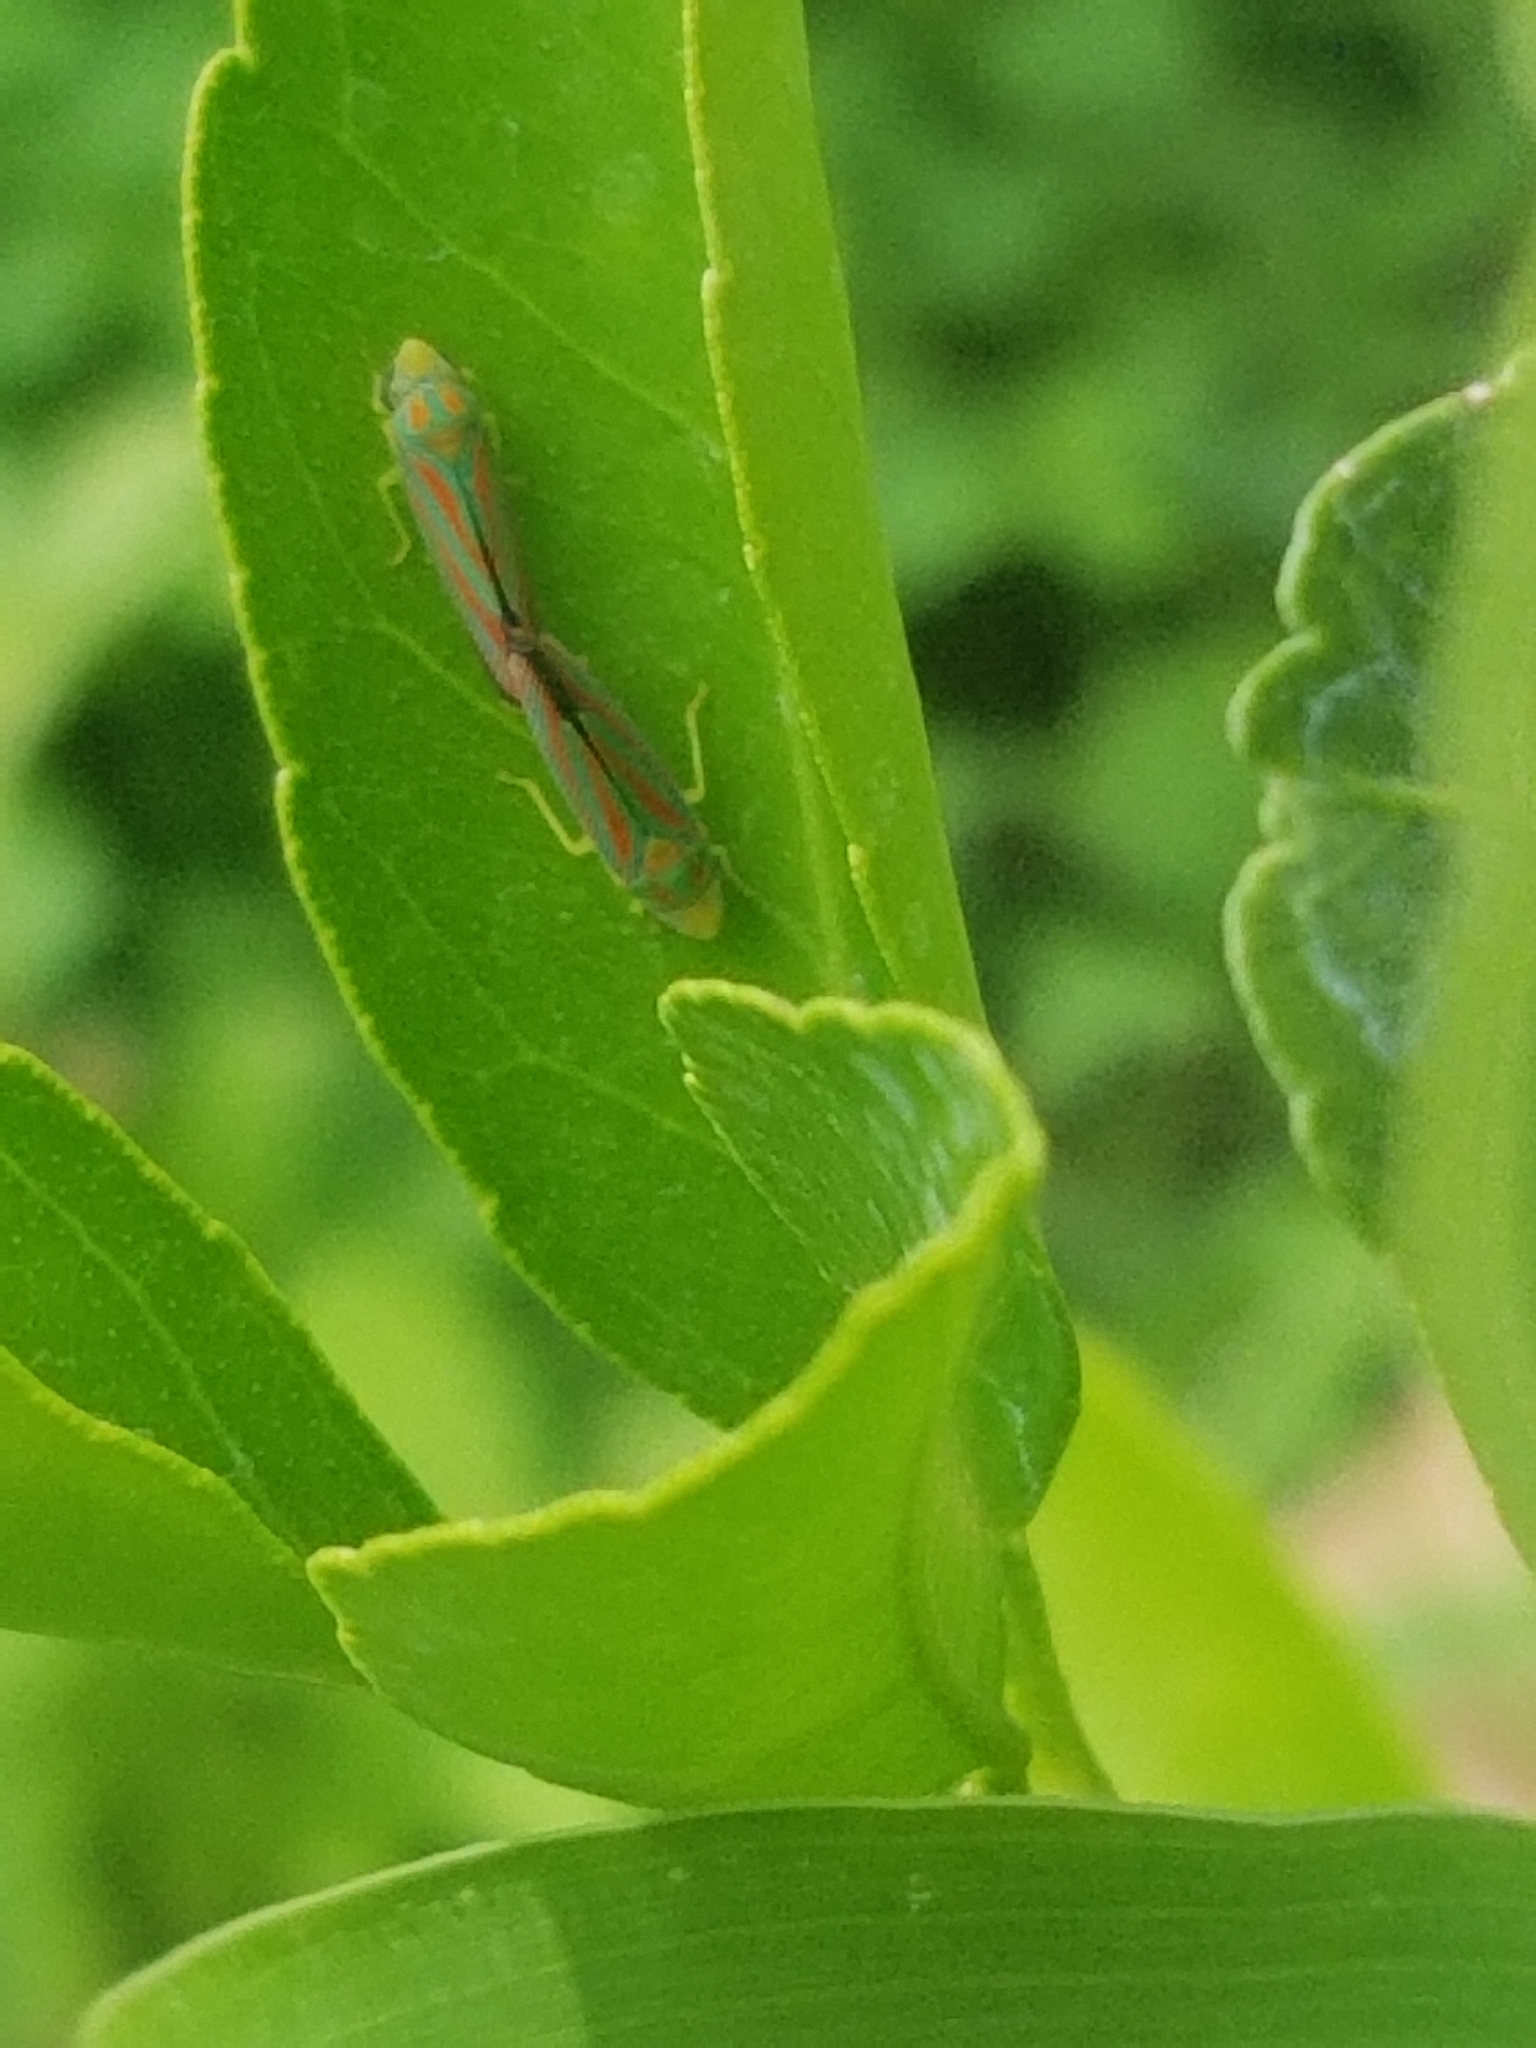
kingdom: Animalia
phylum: Arthropoda
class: Insecta
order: Hemiptera
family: Cicadellidae
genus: Graphocephala
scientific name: Graphocephala coccinea
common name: Candy-striped leafhopper
